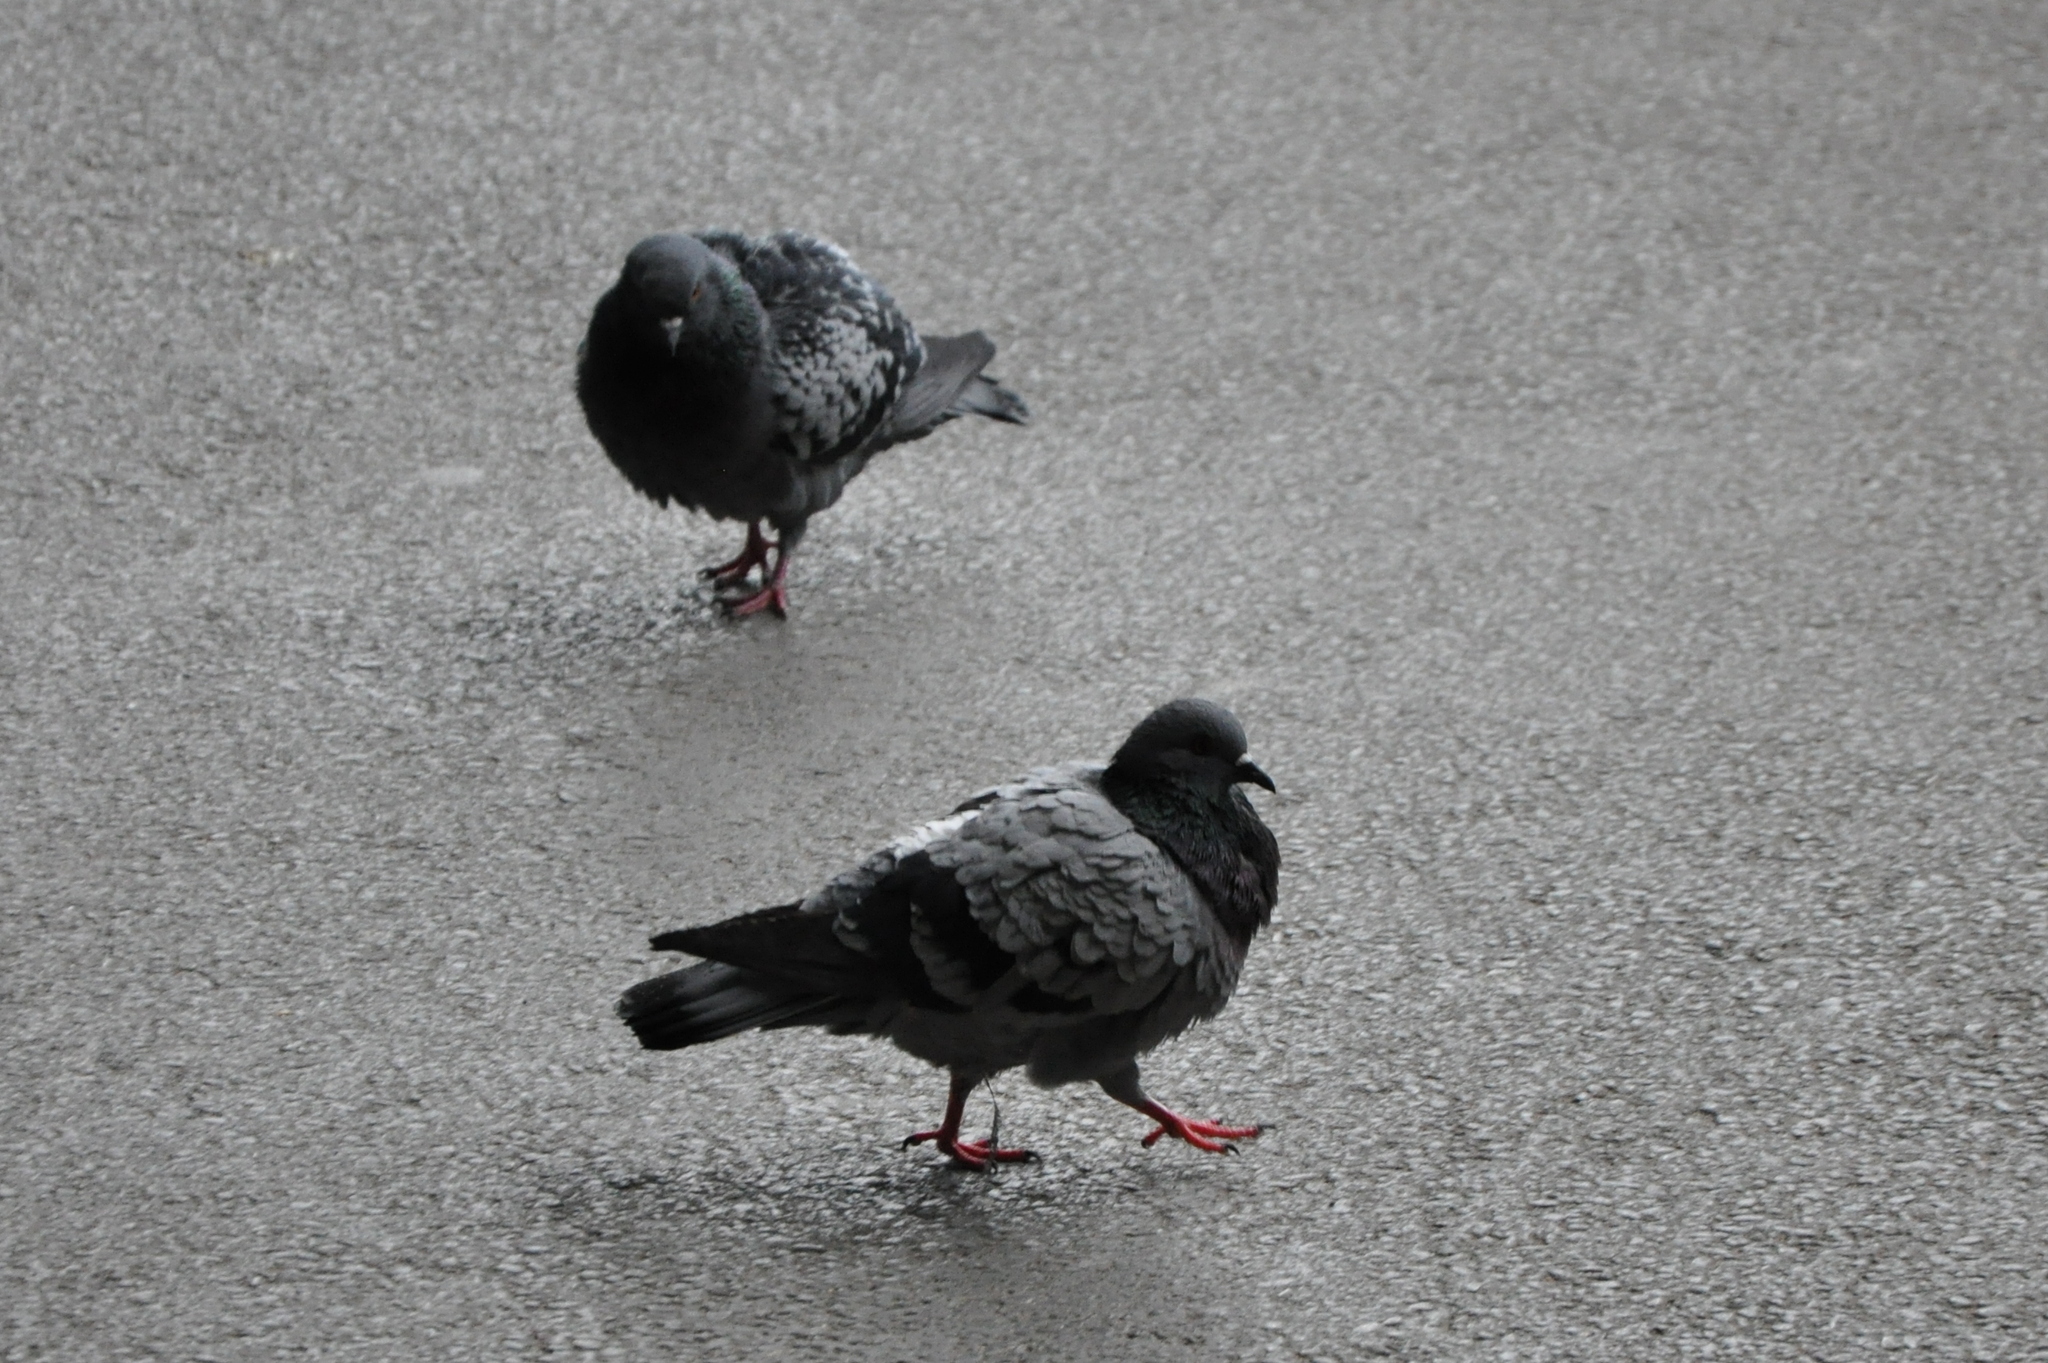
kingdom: Animalia
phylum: Chordata
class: Aves
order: Columbiformes
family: Columbidae
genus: Columba
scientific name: Columba livia
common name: Rock pigeon
